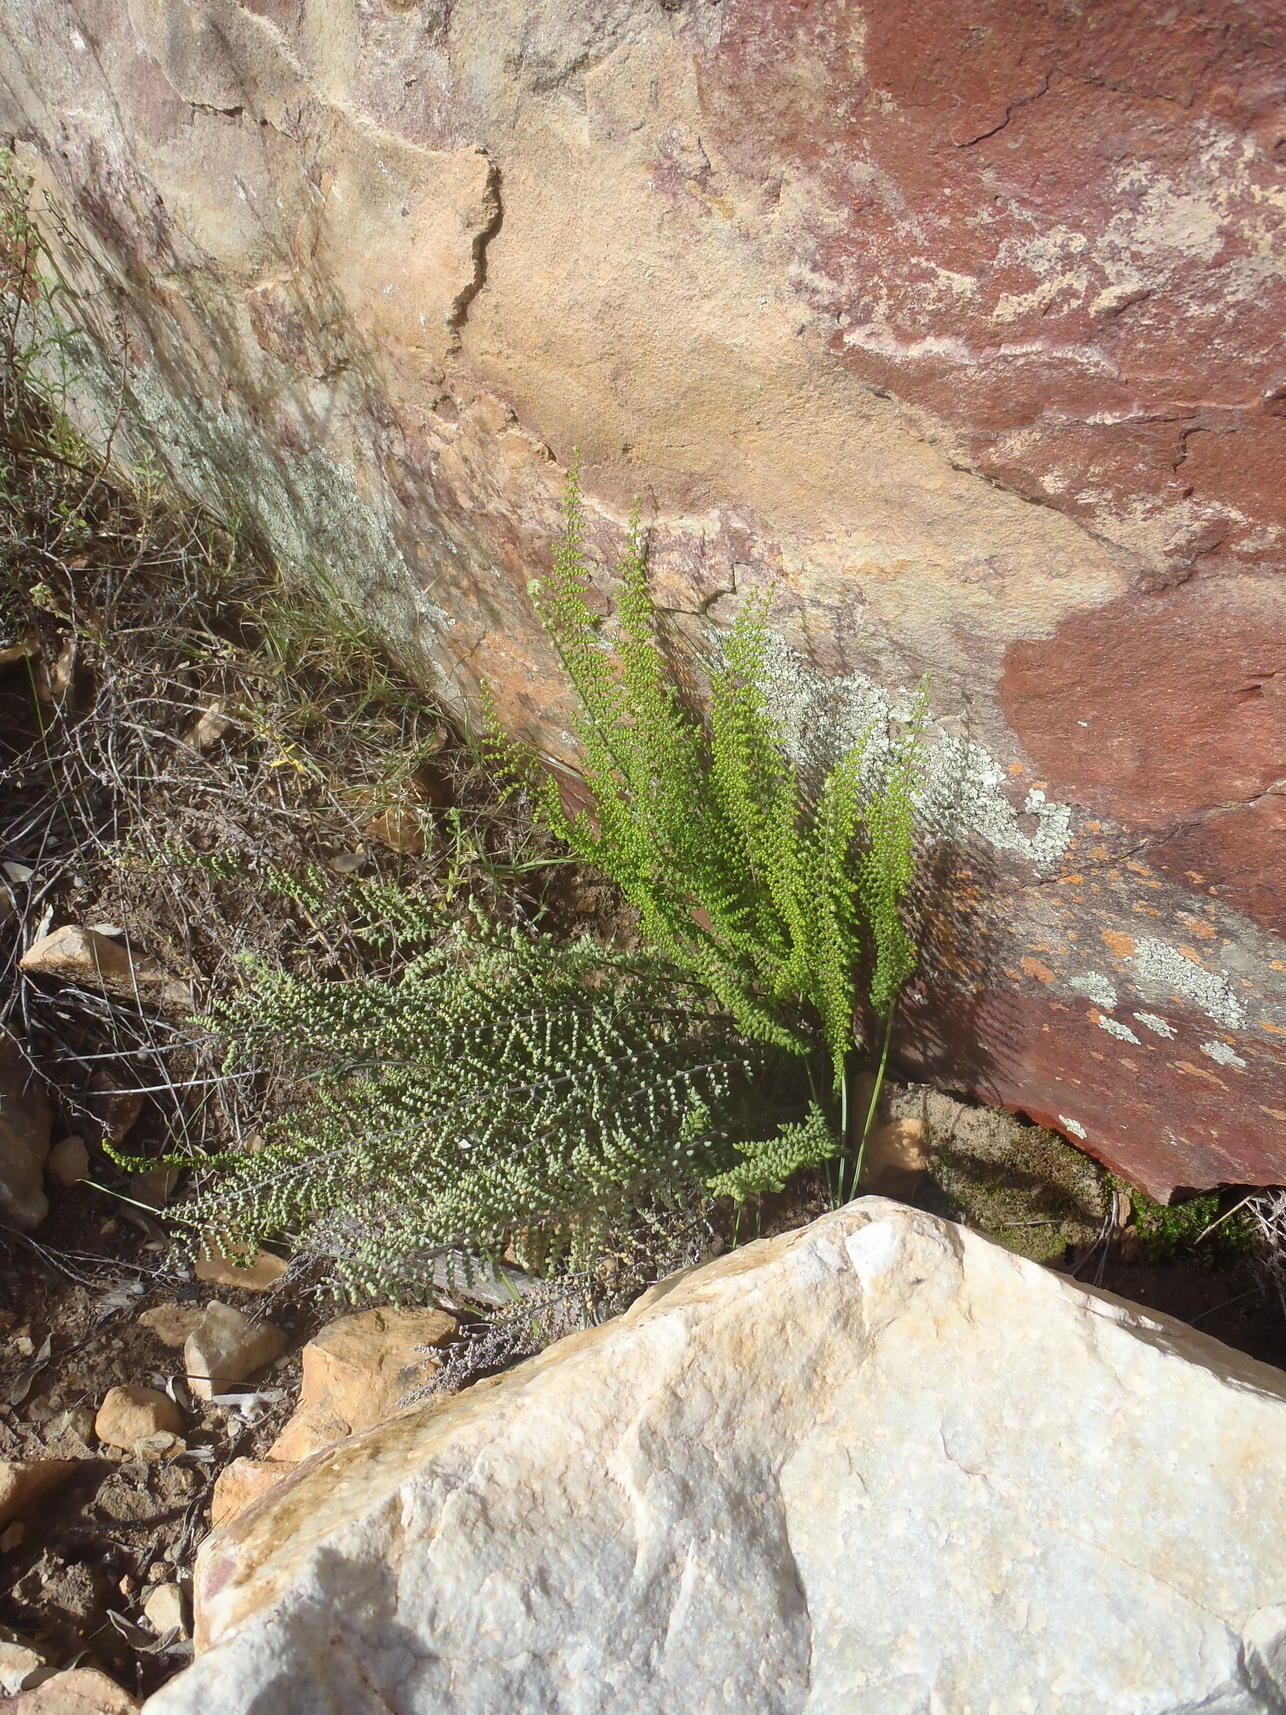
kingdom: Plantae
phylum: Tracheophyta
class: Polypodiopsida
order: Polypodiales
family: Pteridaceae
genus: Cheilanthes
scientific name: Cheilanthes parviloba
